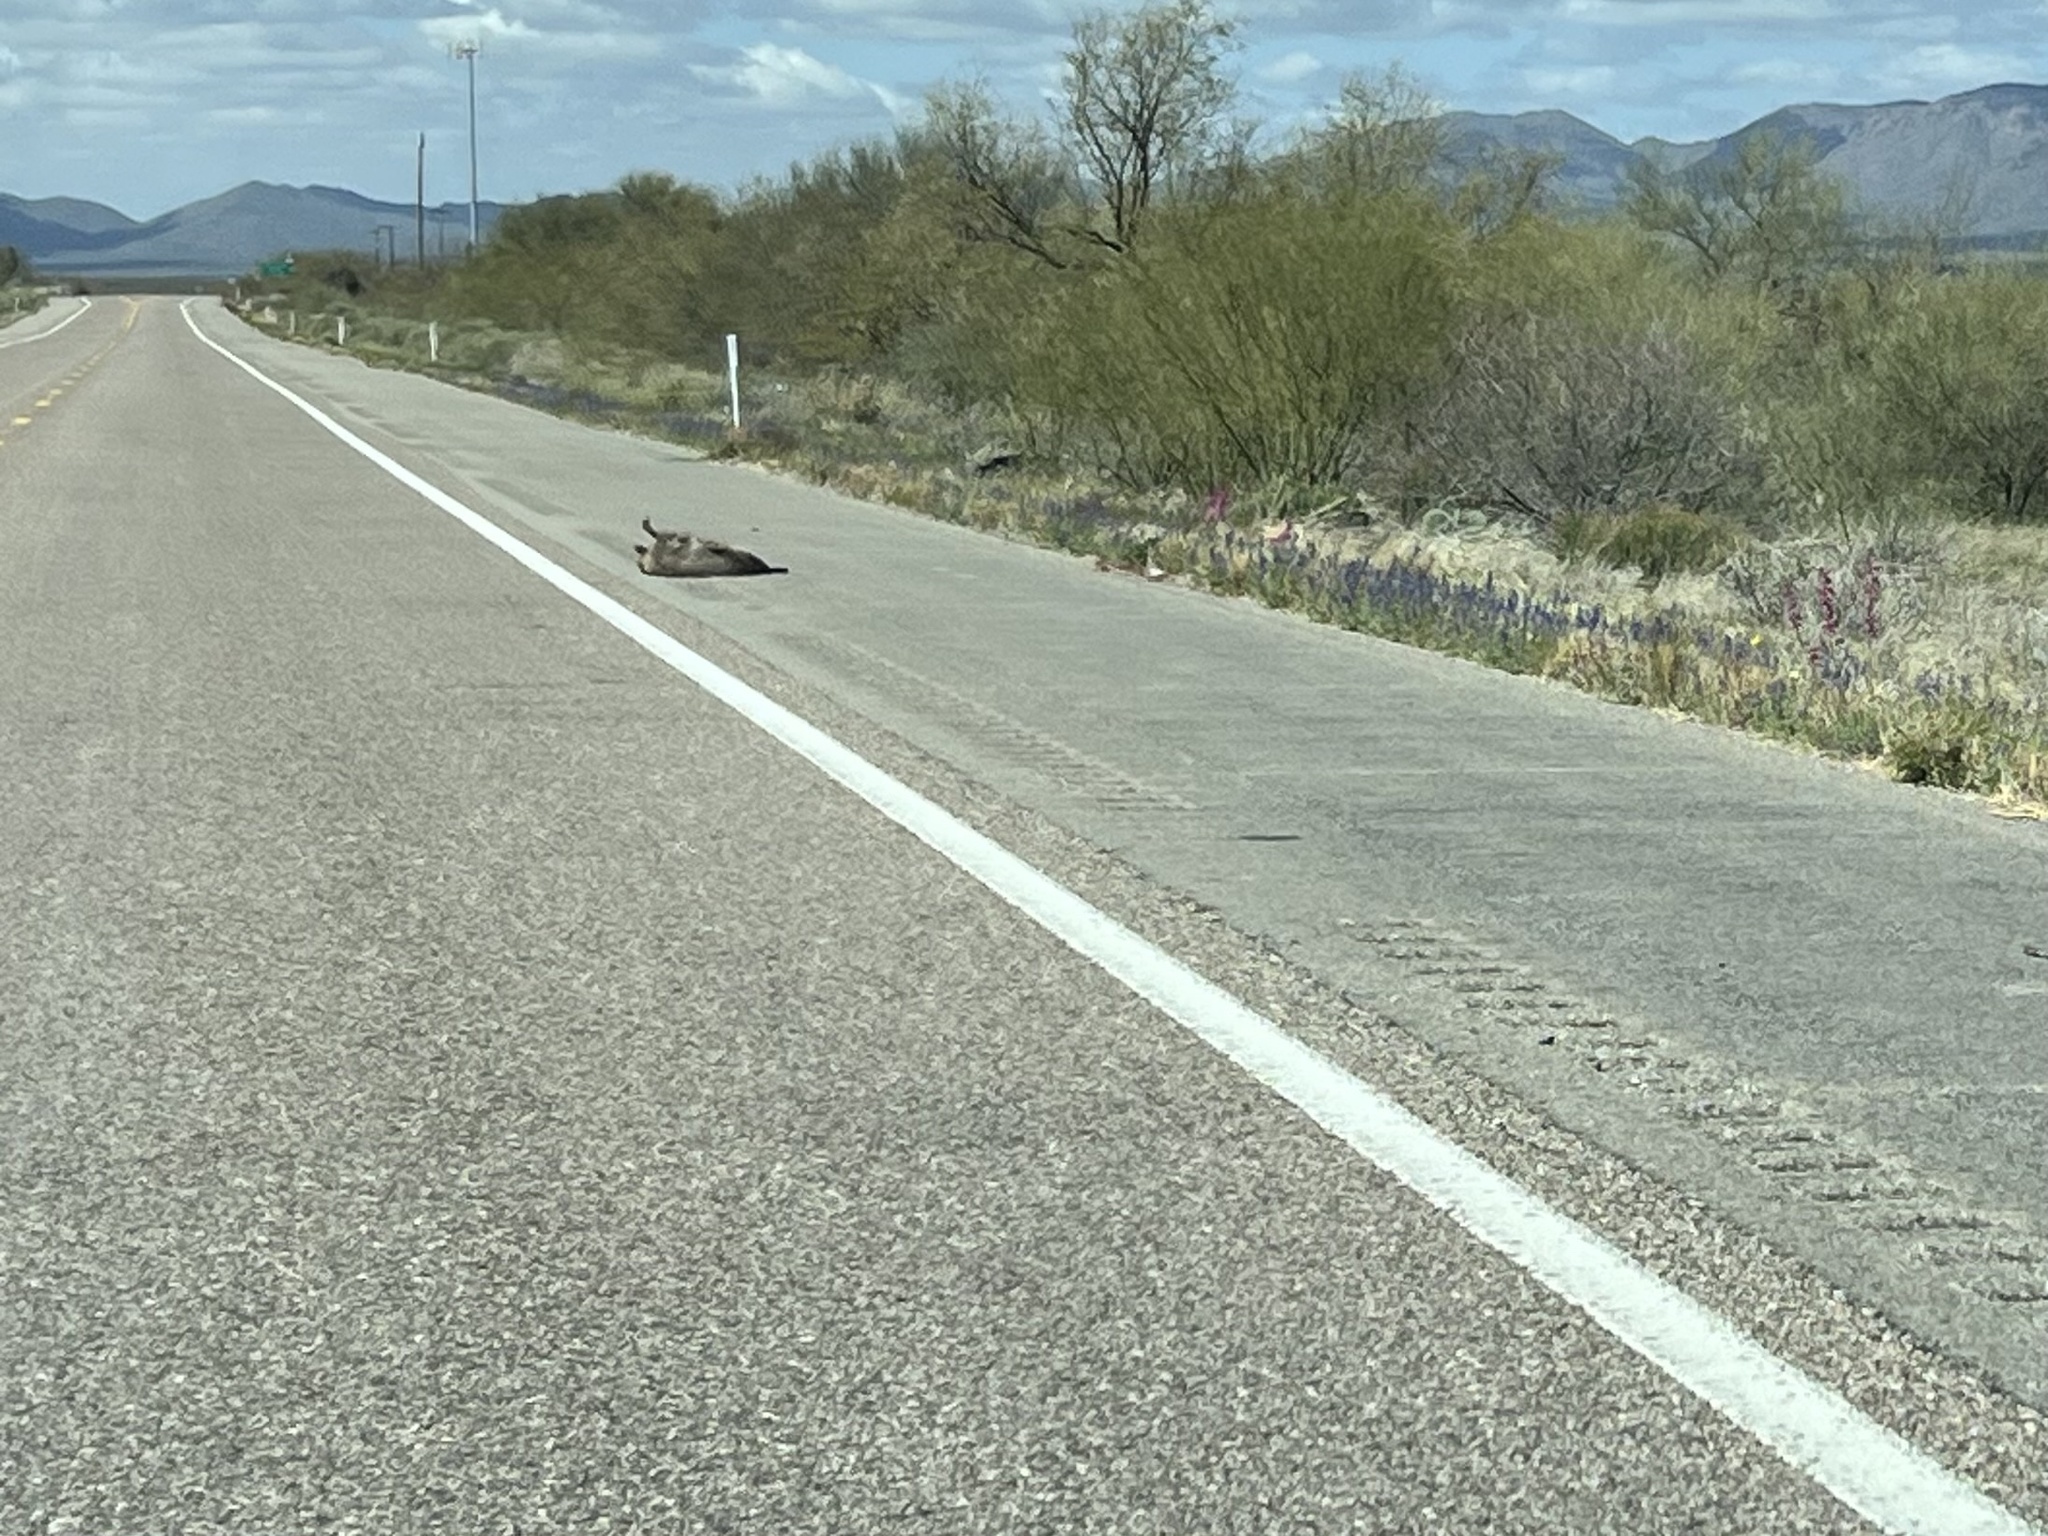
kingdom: Animalia
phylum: Chordata
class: Mammalia
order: Artiodactyla
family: Tayassuidae
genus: Pecari
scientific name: Pecari tajacu
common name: Collared peccary
